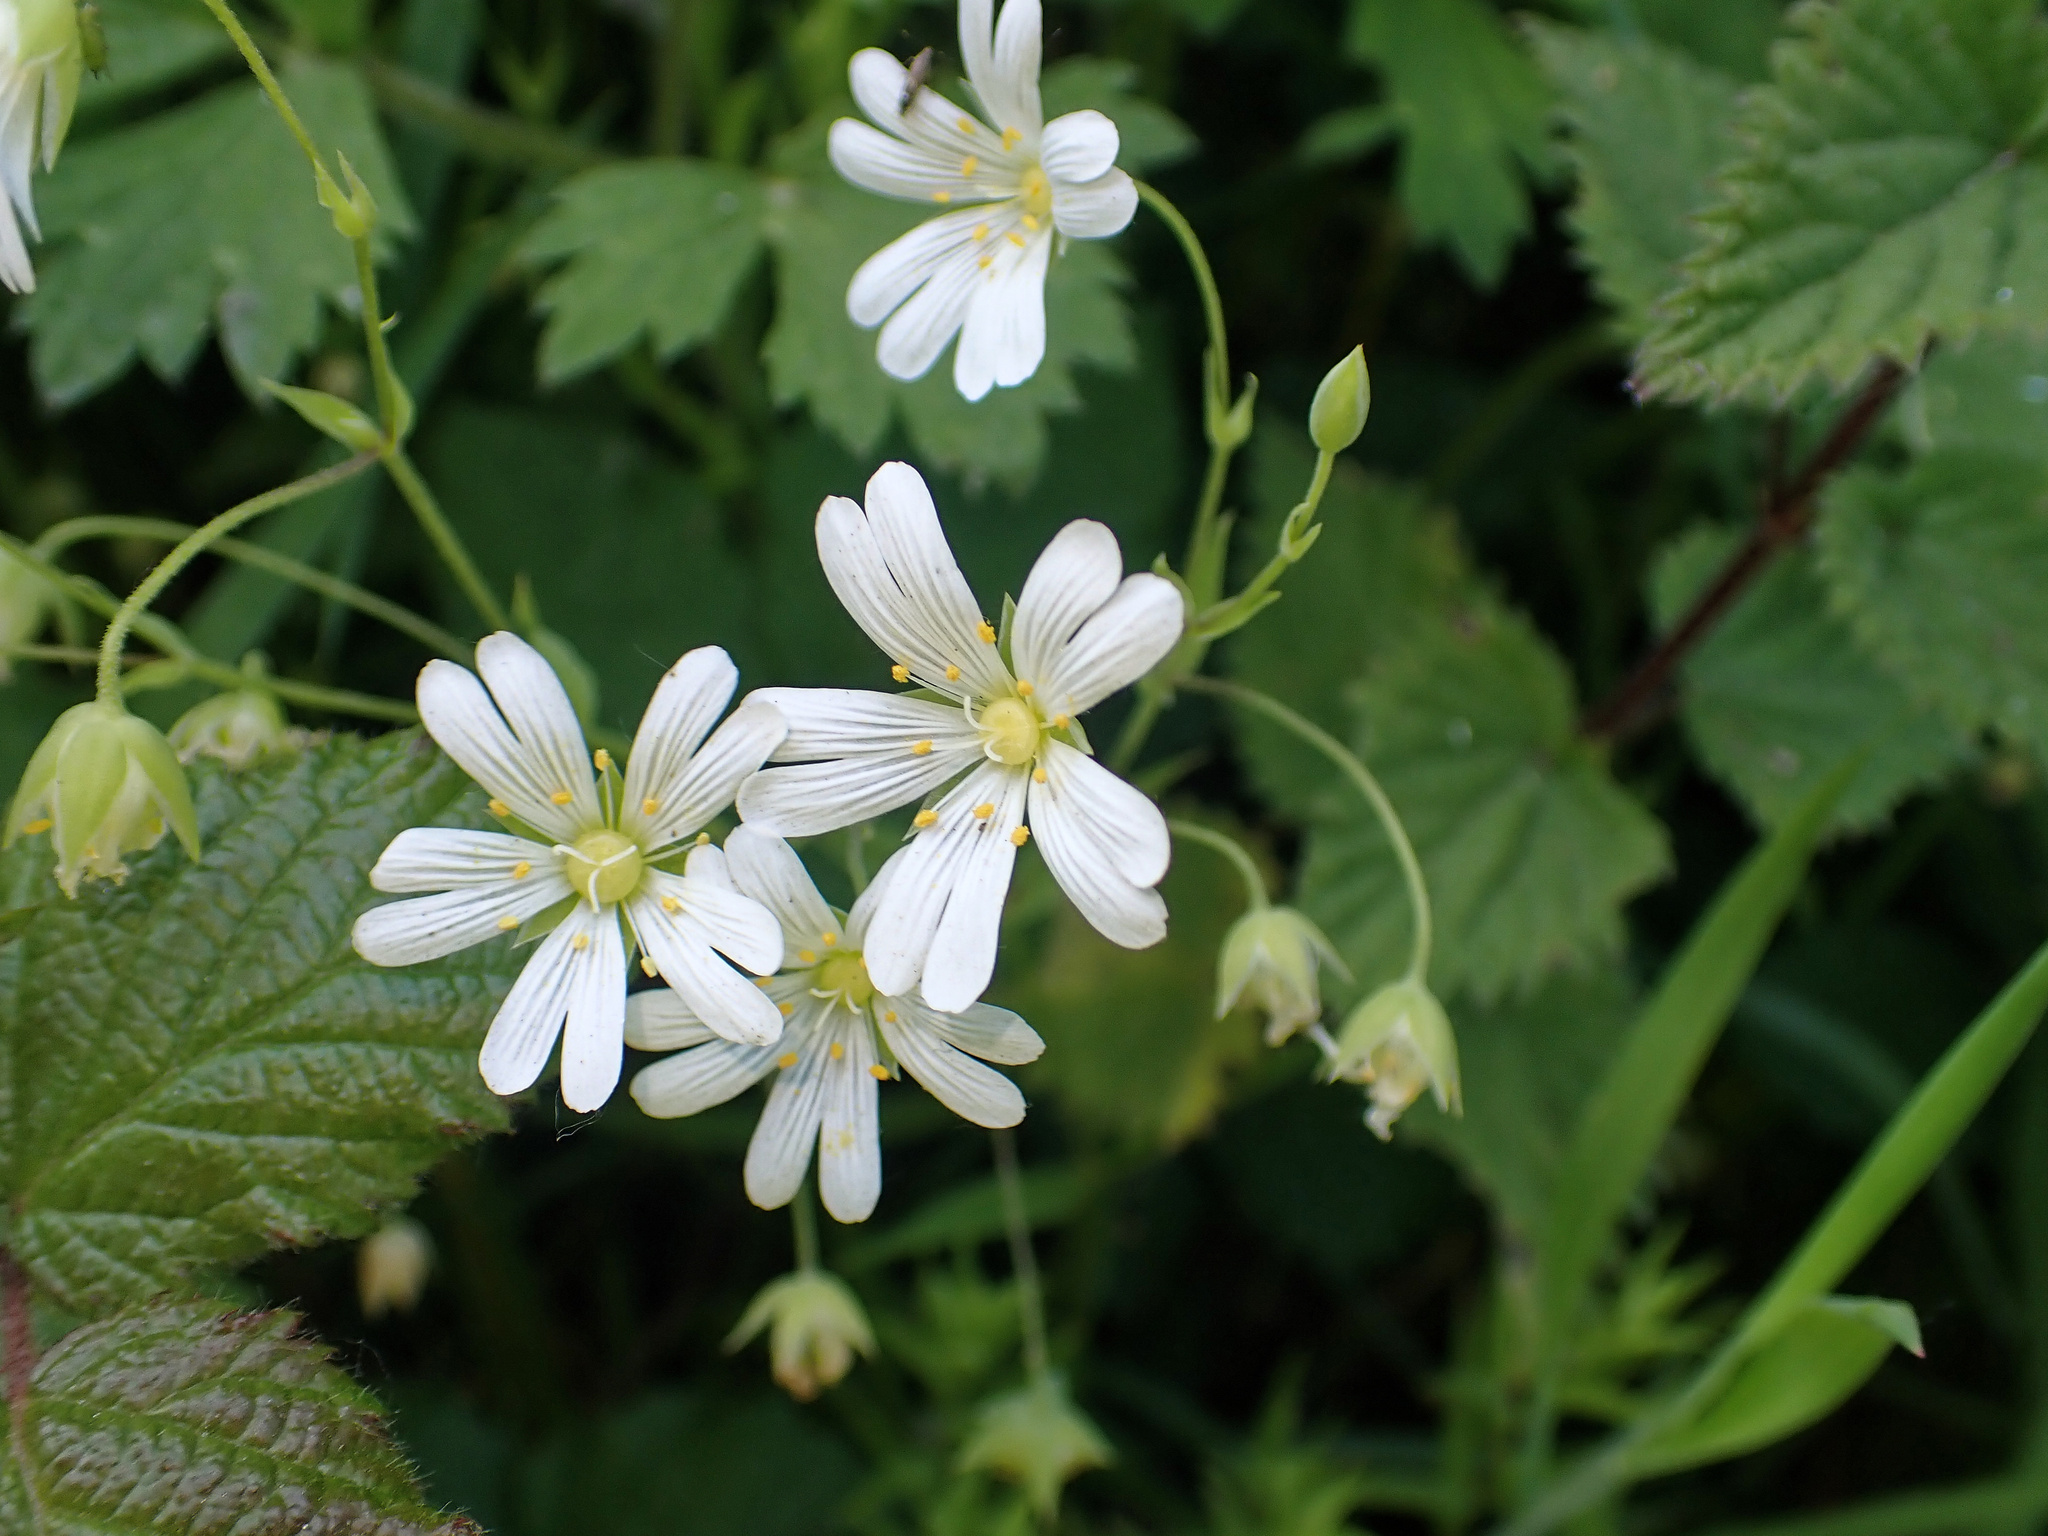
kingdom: Plantae
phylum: Tracheophyta
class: Magnoliopsida
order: Caryophyllales
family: Caryophyllaceae
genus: Rabelera
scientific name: Rabelera holostea
